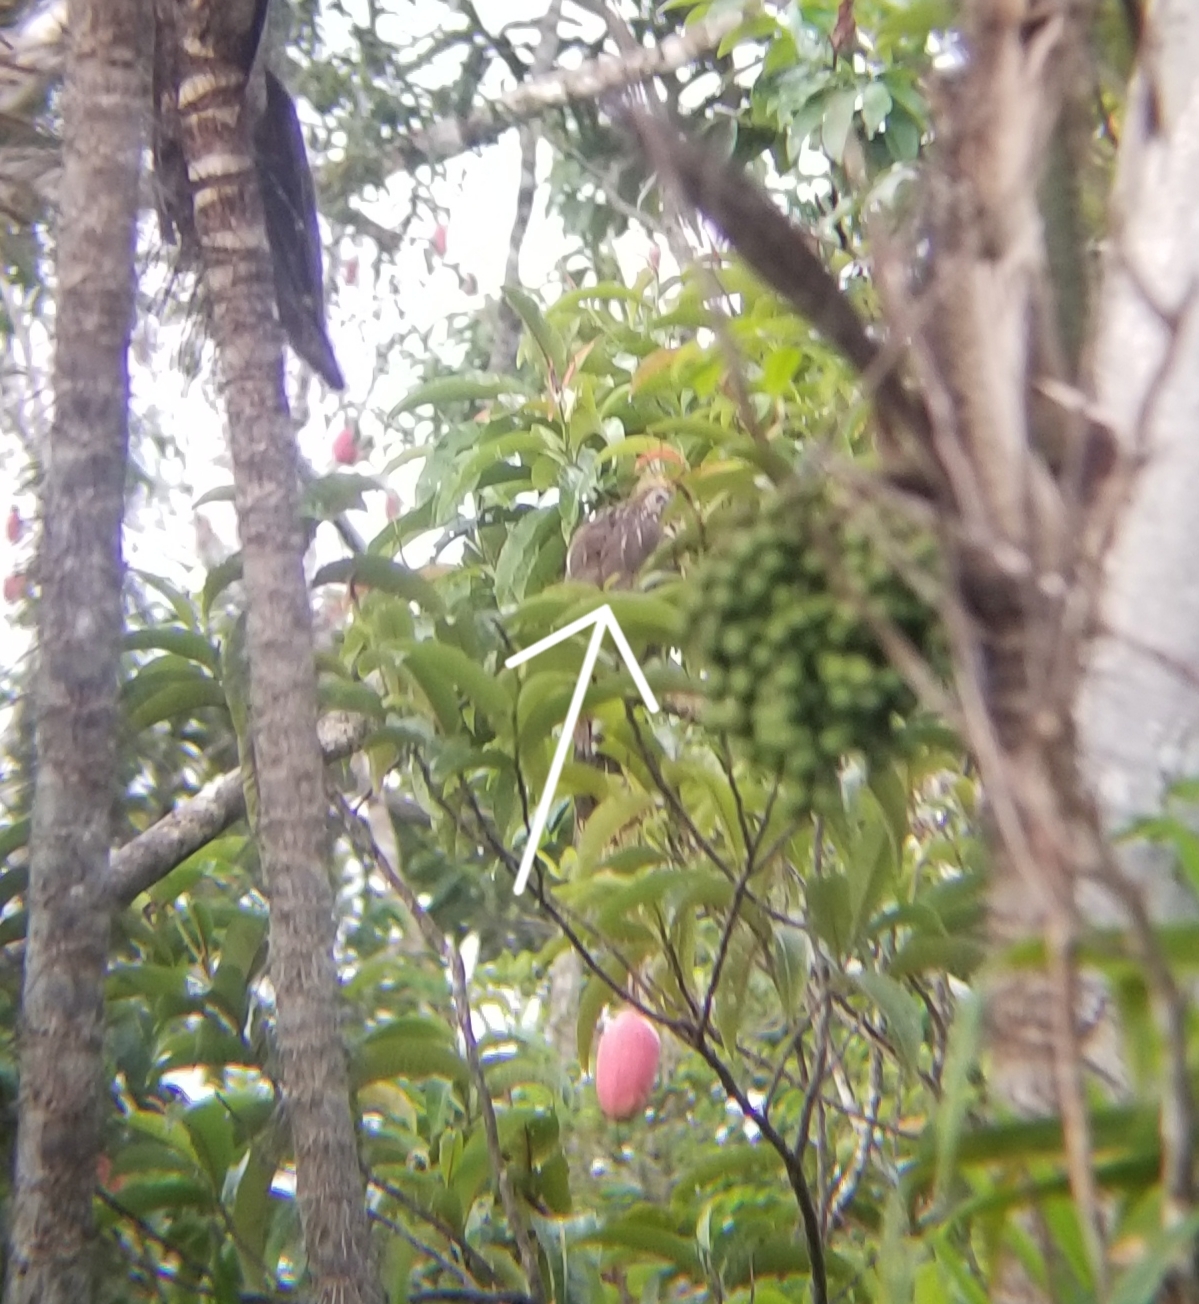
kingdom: Animalia
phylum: Chordata
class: Aves
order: Opisthocomiformes
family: Opisthocomidae
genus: Opisthocomus
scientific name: Opisthocomus hoazin
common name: Hoatzin
